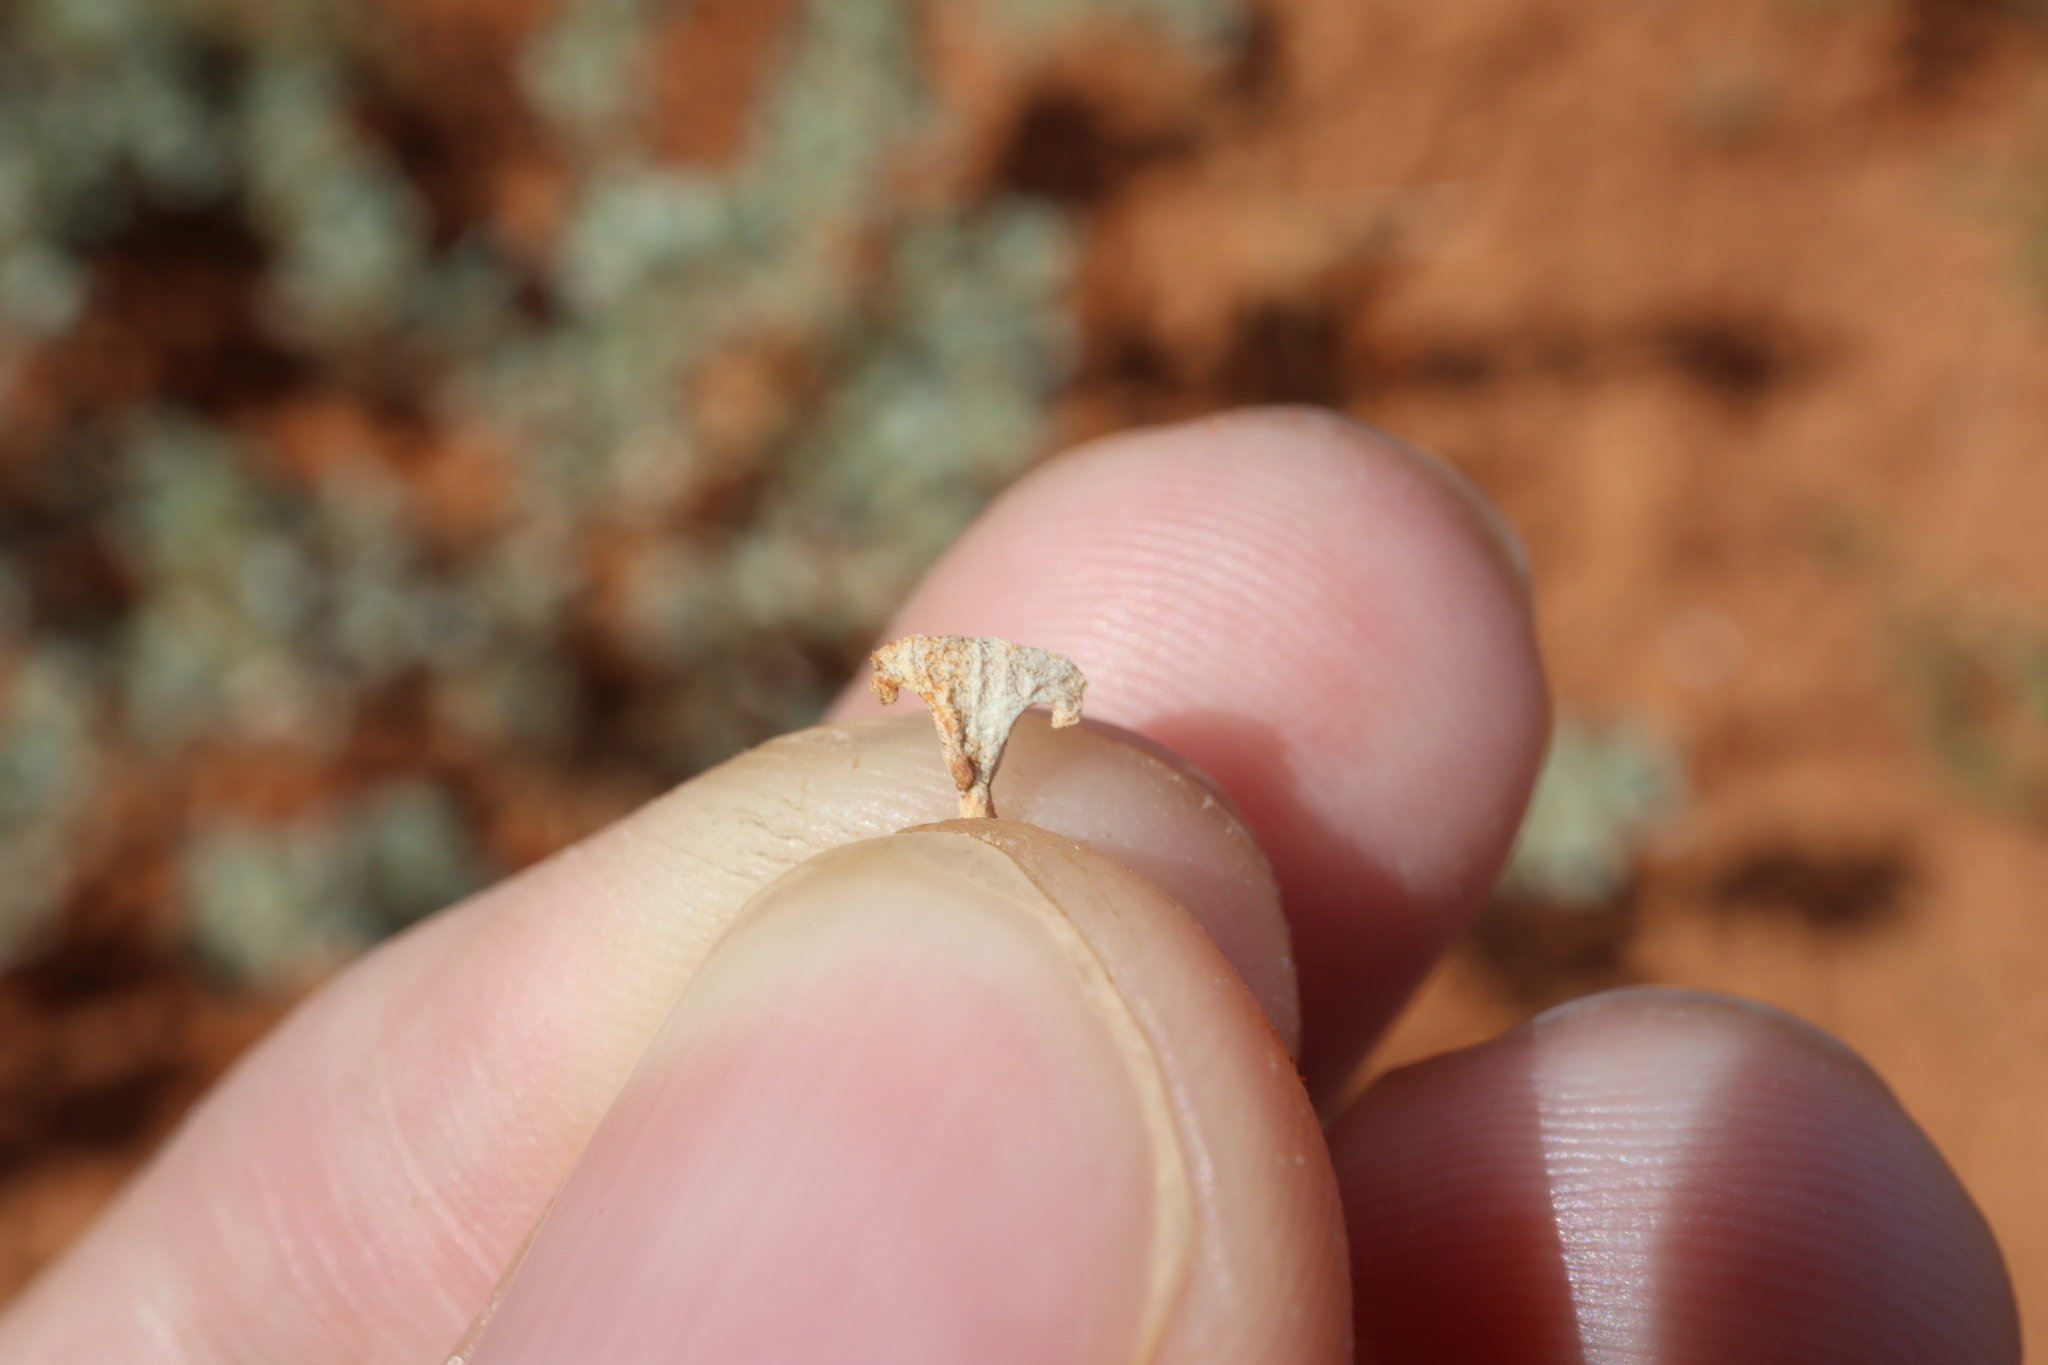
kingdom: Plantae
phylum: Tracheophyta
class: Magnoliopsida
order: Caryophyllales
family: Amaranthaceae
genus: Atriplex
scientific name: Atriplex angulata
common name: Fan saltbush
